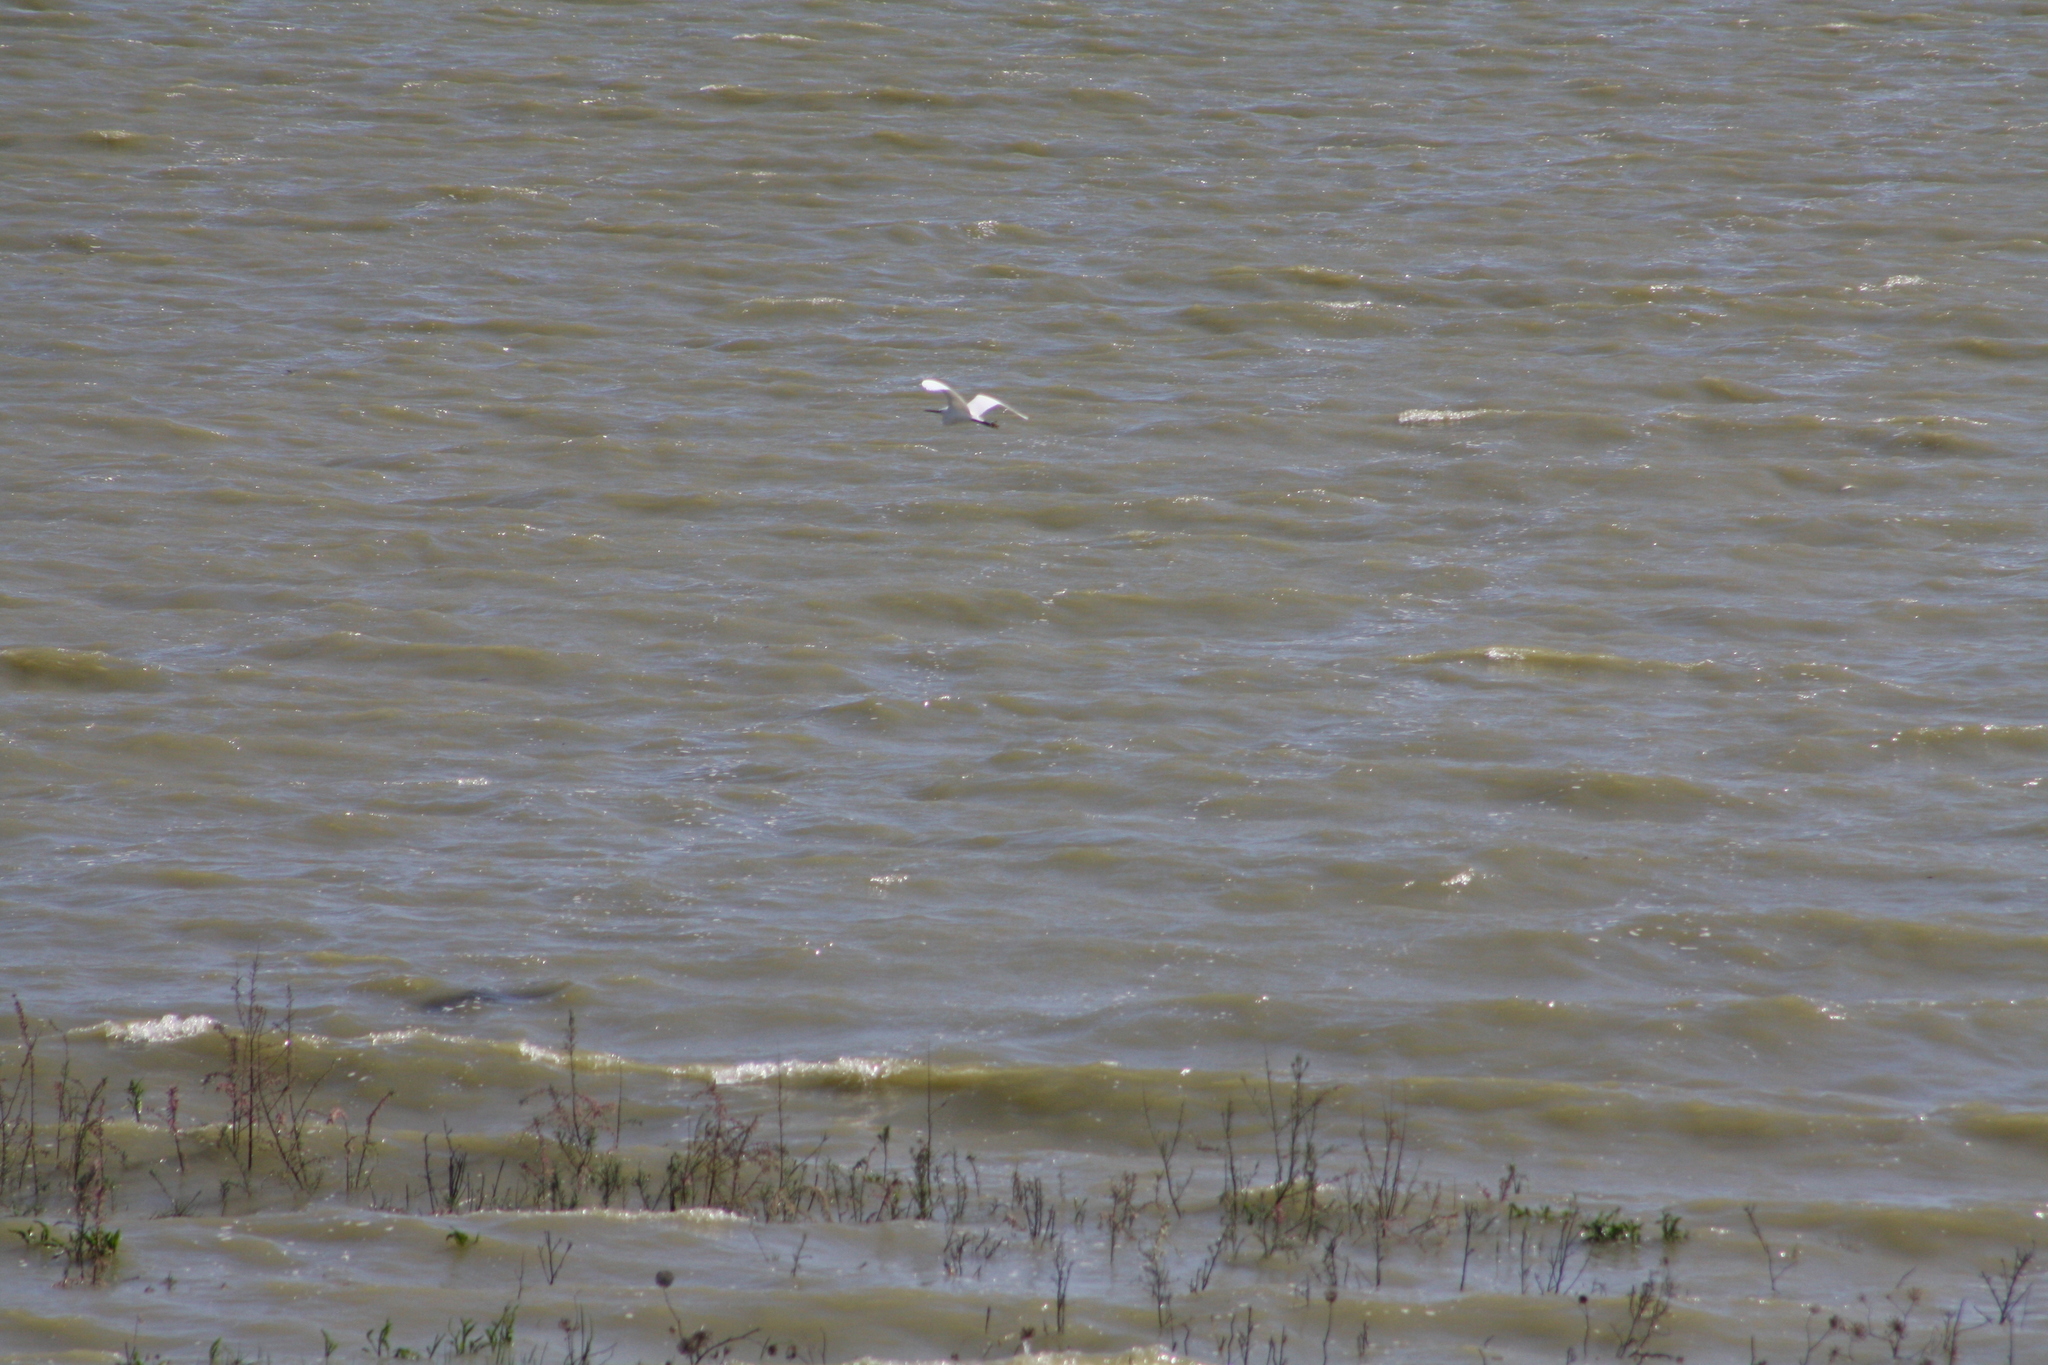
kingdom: Animalia
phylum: Chordata
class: Aves
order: Pelecaniformes
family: Ardeidae
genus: Egretta
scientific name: Egretta garzetta
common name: Little egret
